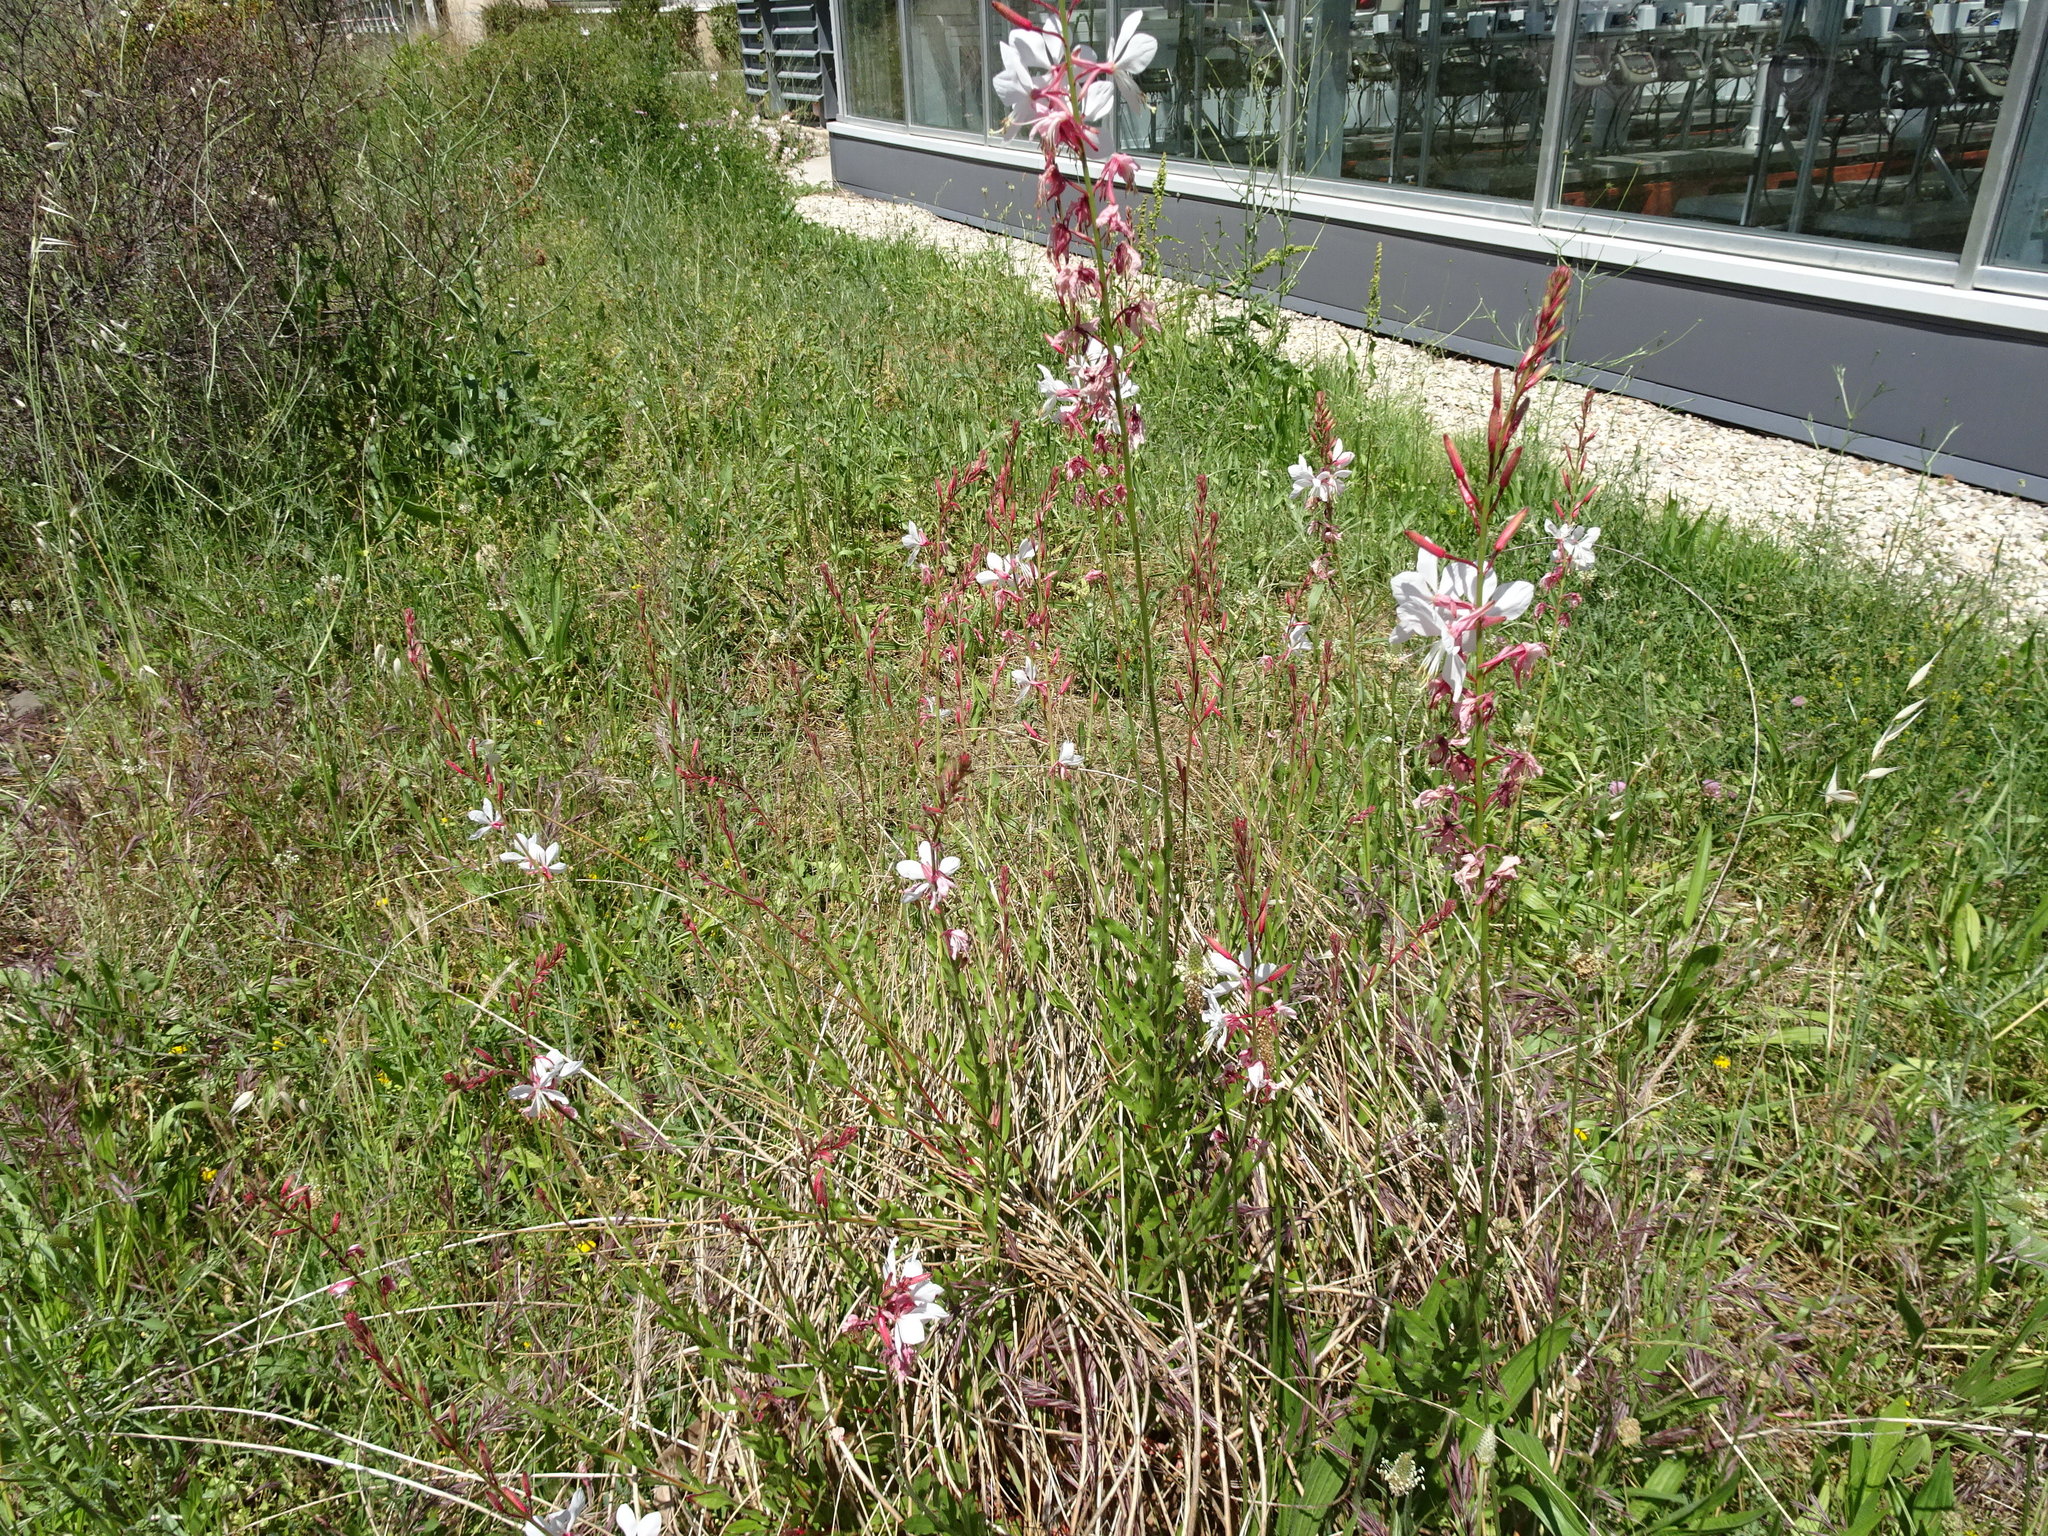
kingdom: Plantae
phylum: Tracheophyta
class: Magnoliopsida
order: Myrtales
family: Onagraceae
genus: Oenothera
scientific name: Oenothera lindheimeri
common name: Lindheimer's beeblossom
